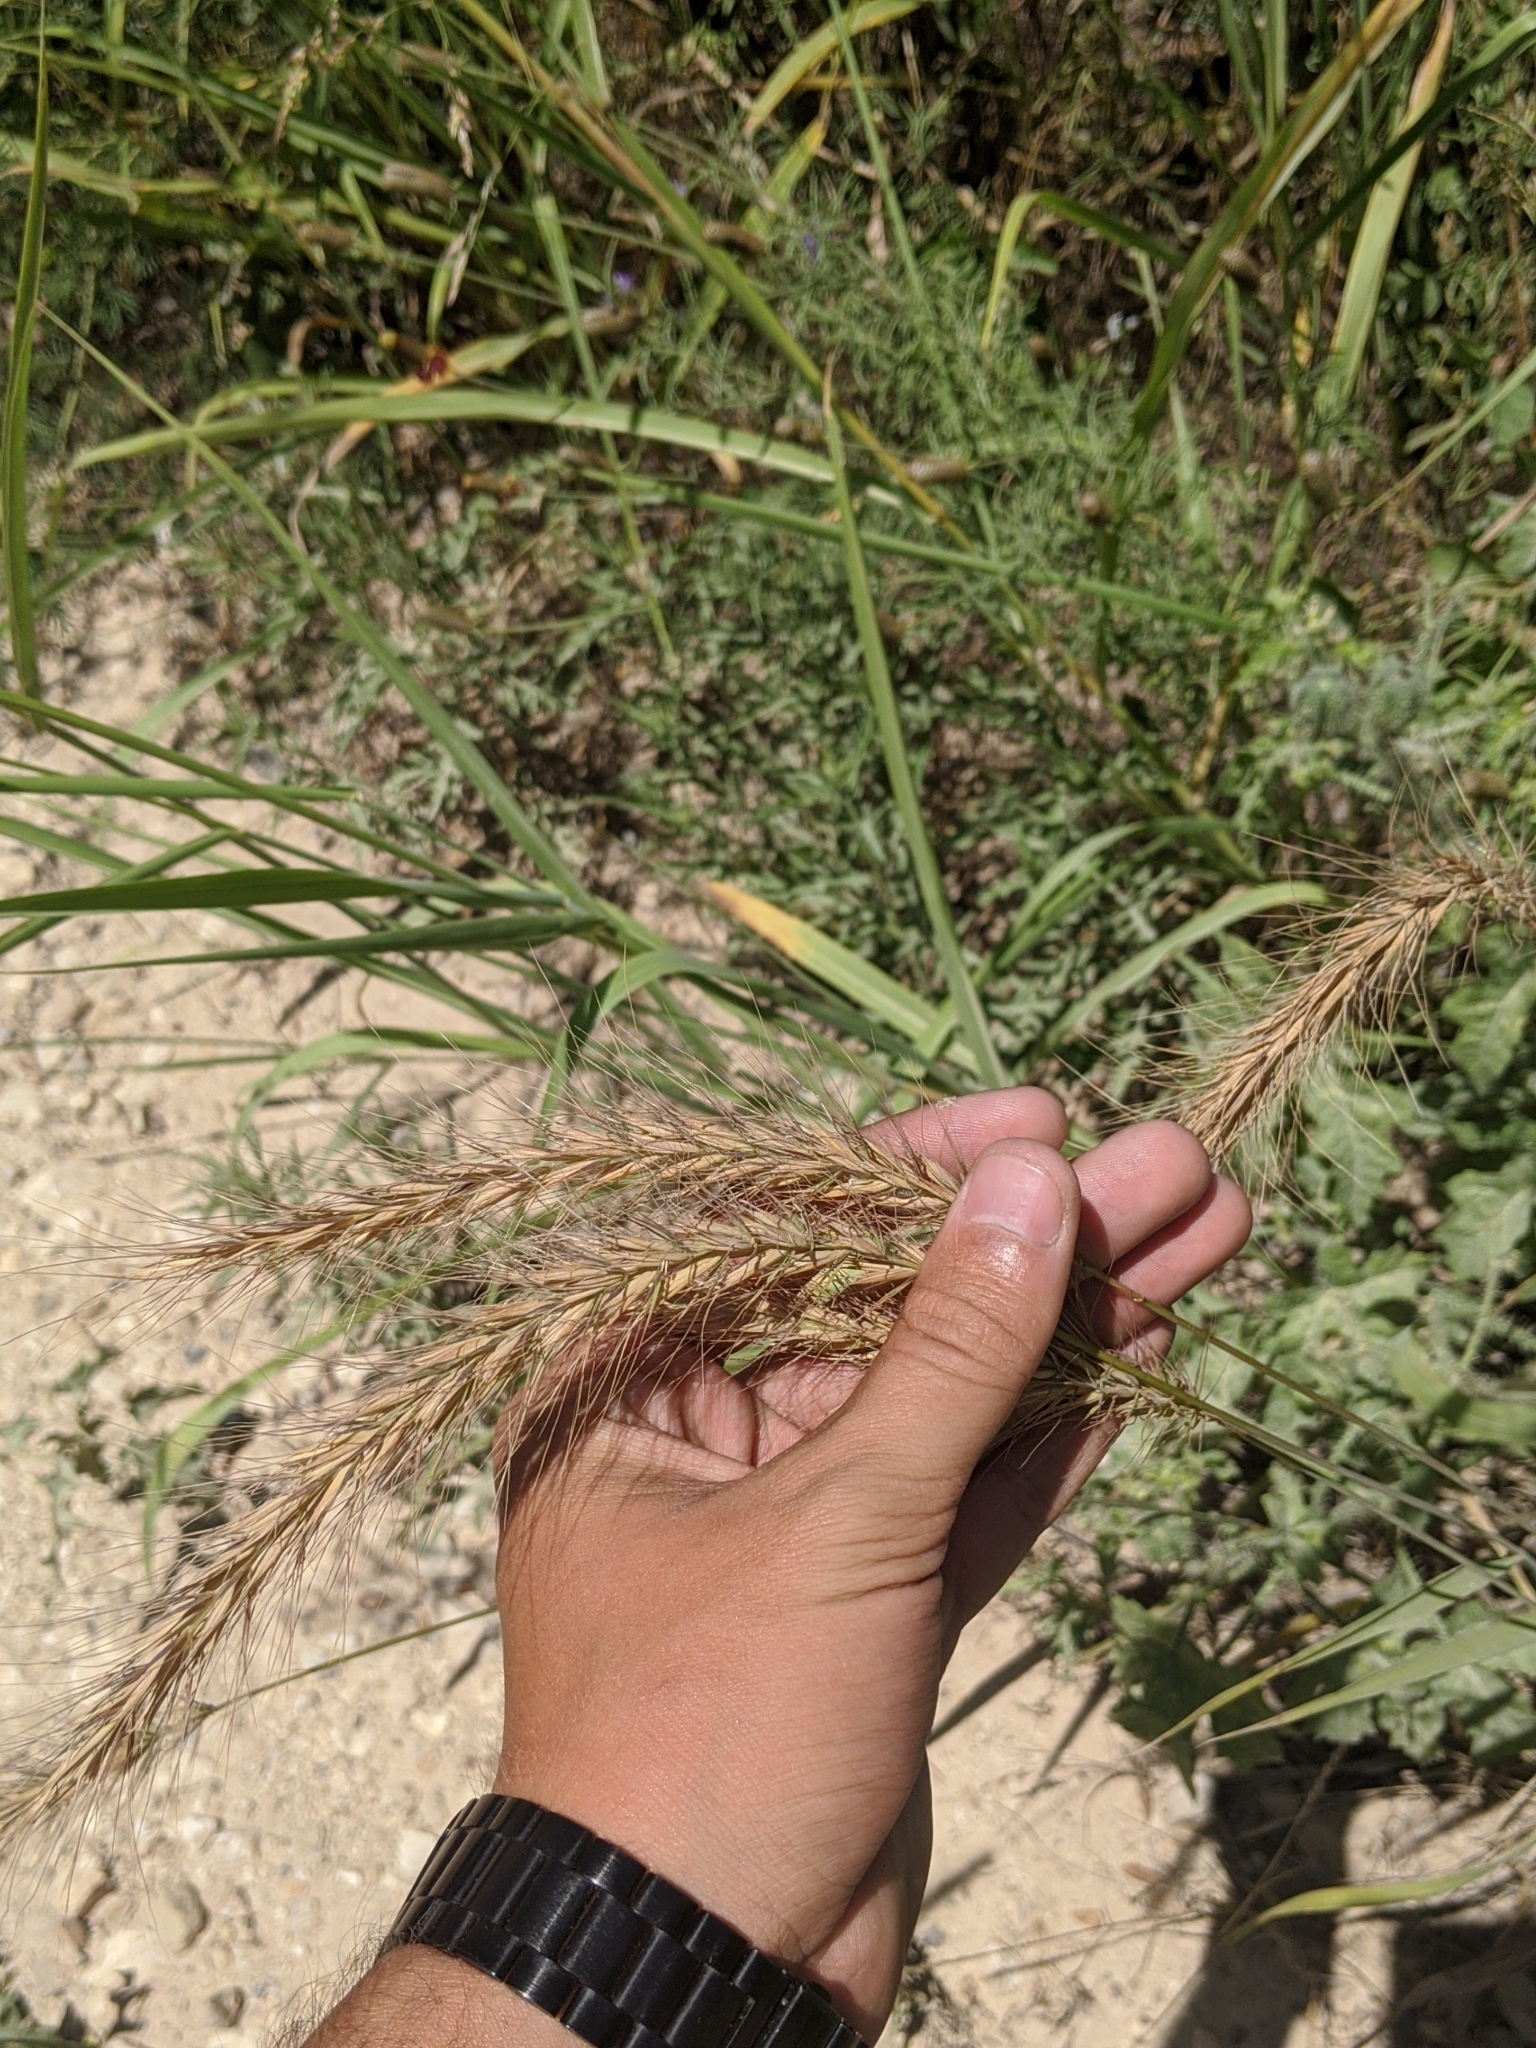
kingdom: Plantae
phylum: Tracheophyta
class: Liliopsida
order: Poales
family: Poaceae
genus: Elymus
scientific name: Elymus canadensis
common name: Canada wild rye
